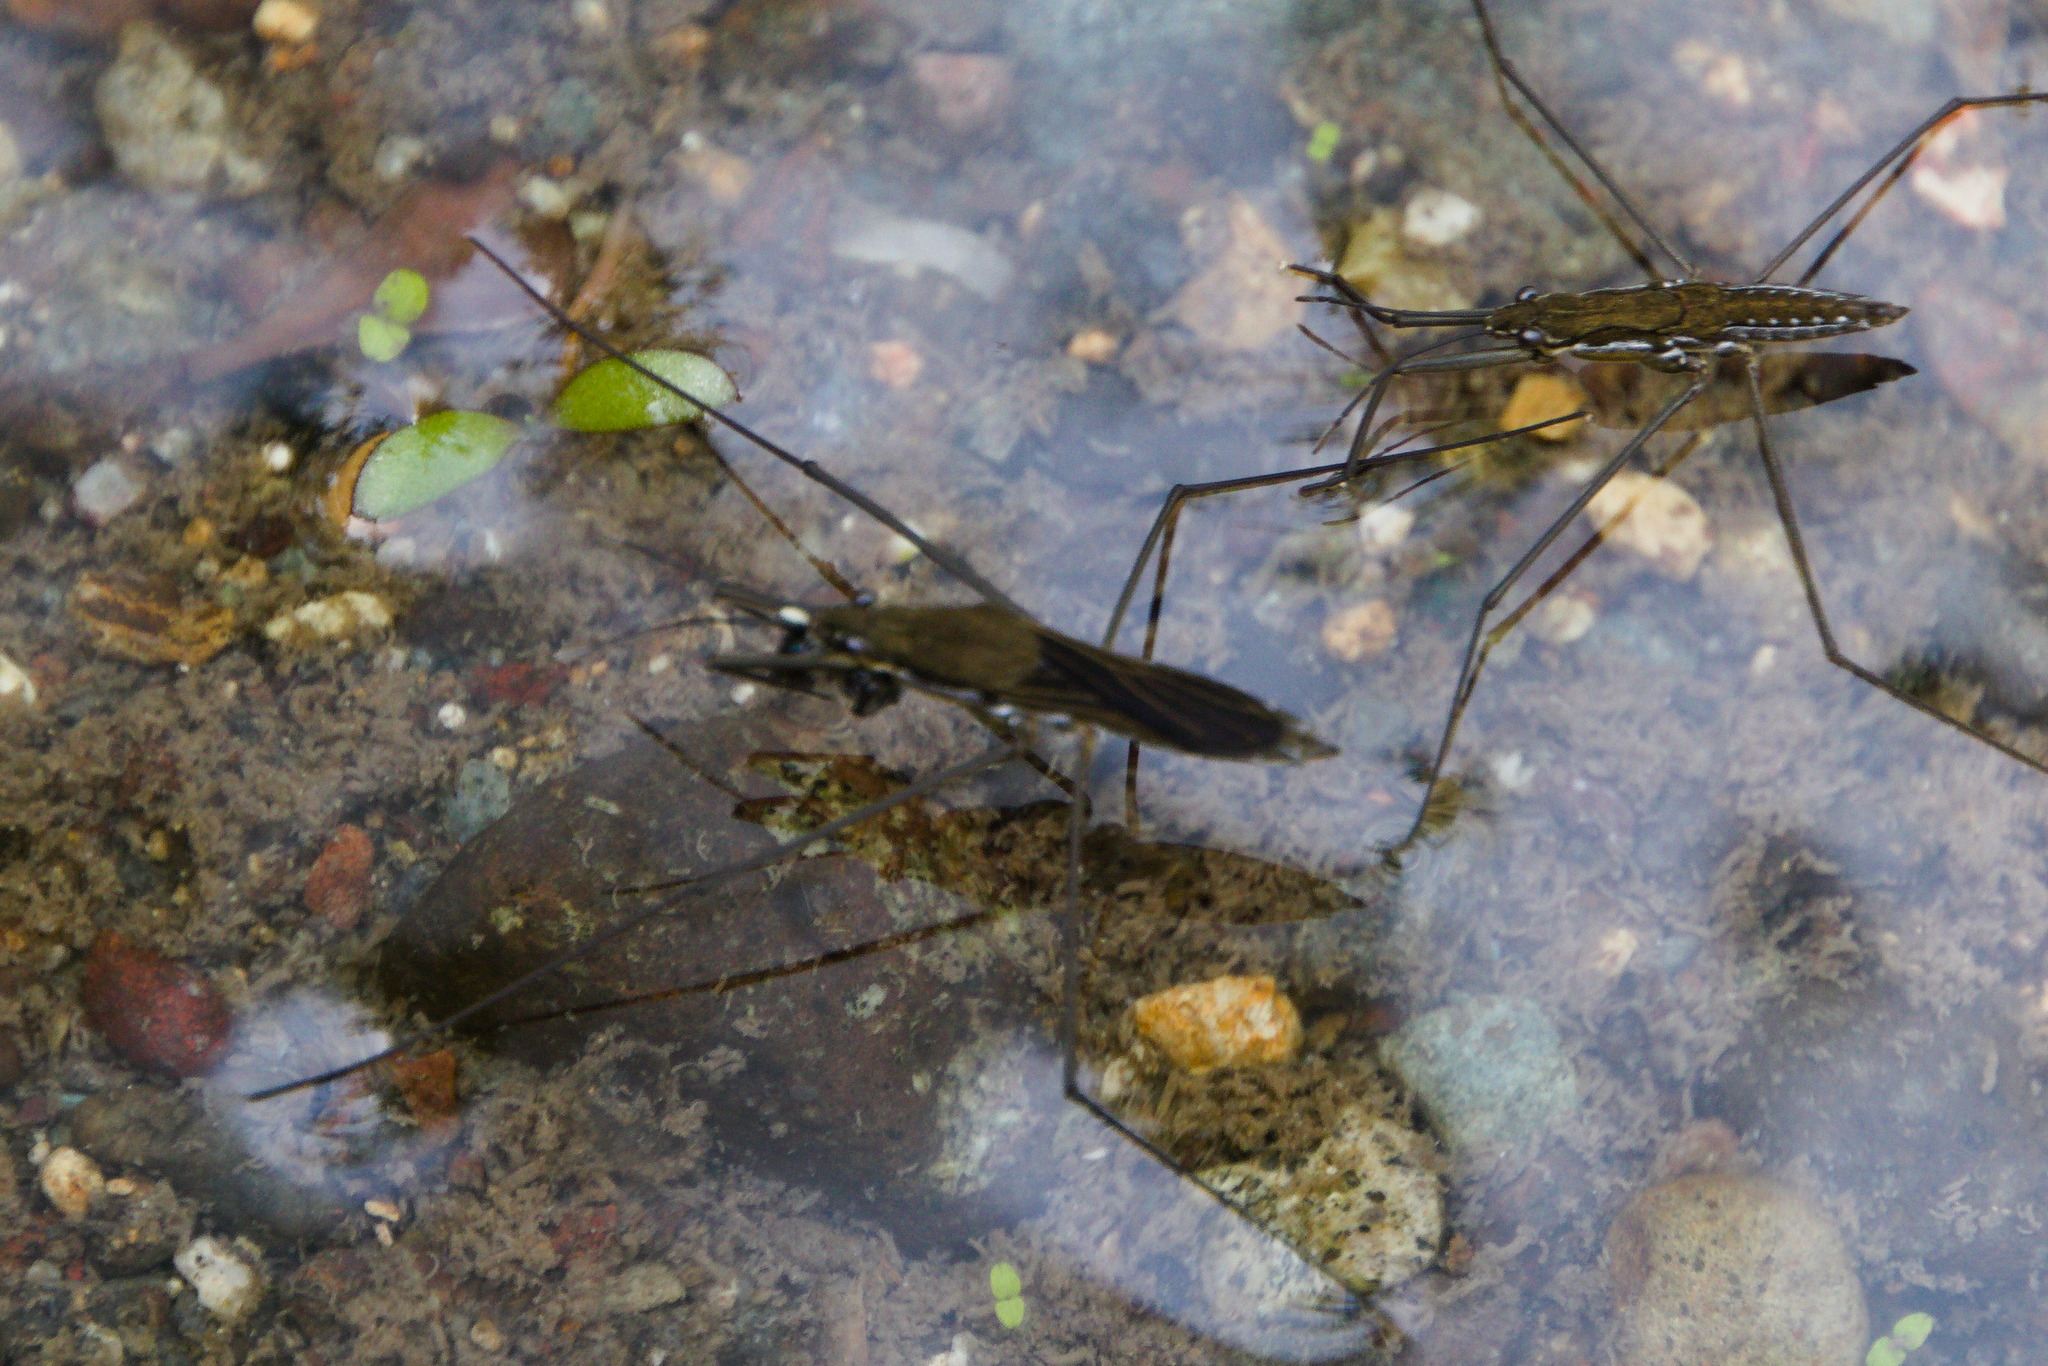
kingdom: Animalia
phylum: Arthropoda
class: Insecta
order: Hemiptera
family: Gerridae
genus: Aquarius
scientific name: Aquarius chilensis
